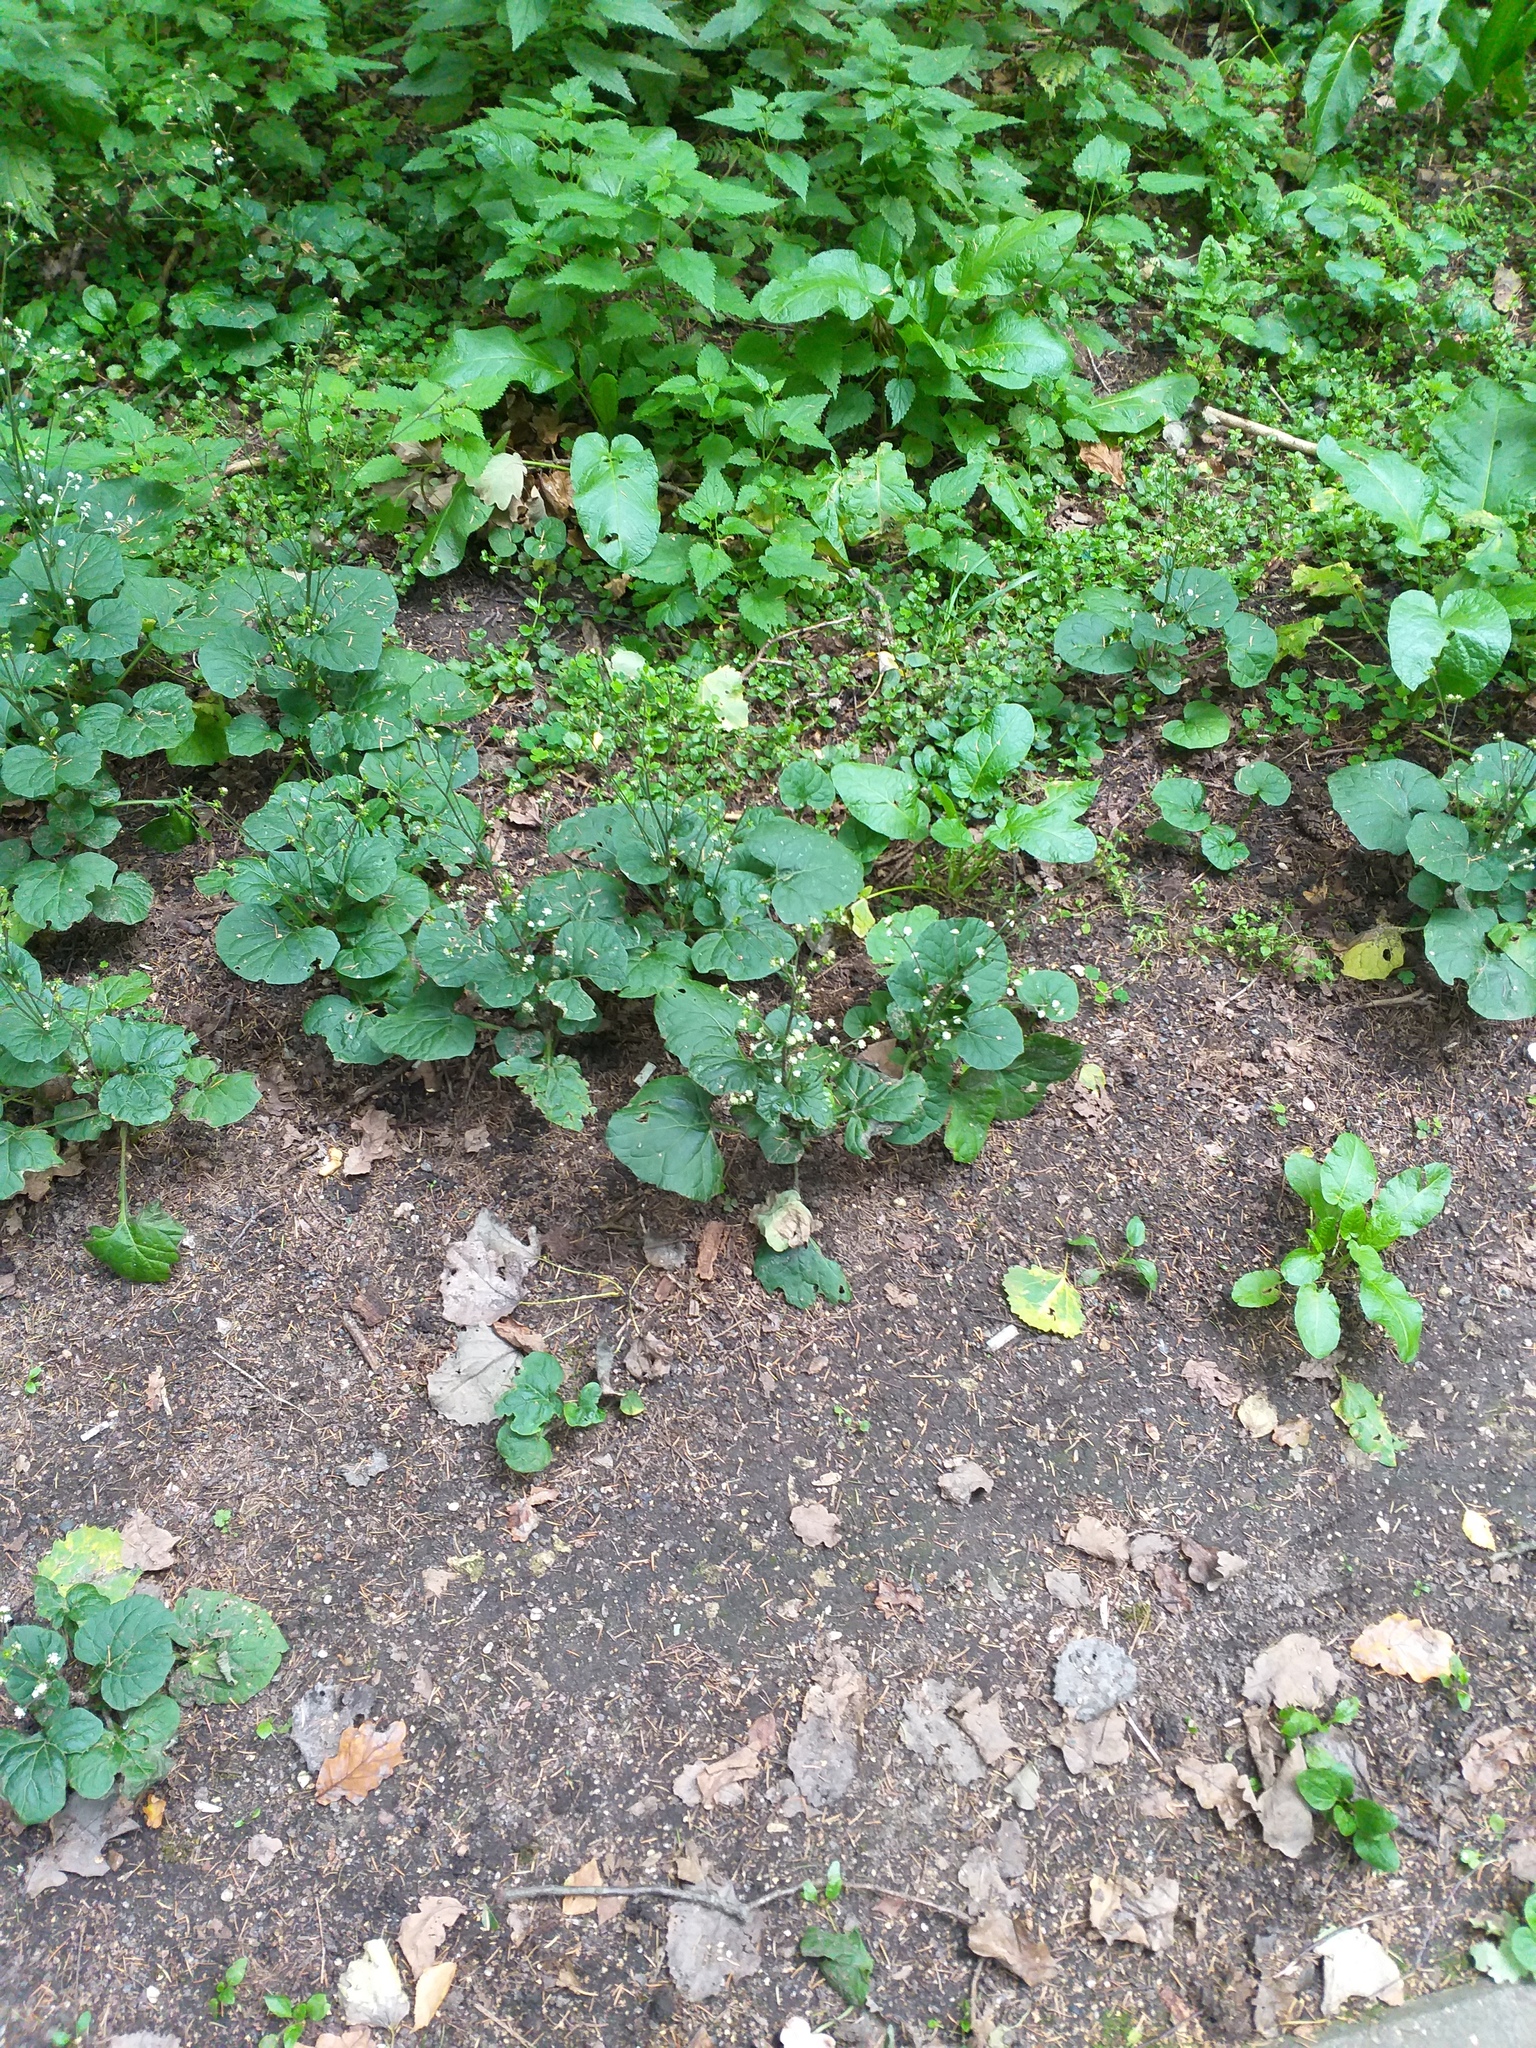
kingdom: Plantae
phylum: Tracheophyta
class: Magnoliopsida
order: Asterales
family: Asteraceae
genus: Adenocaulon
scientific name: Adenocaulon himalaicum
